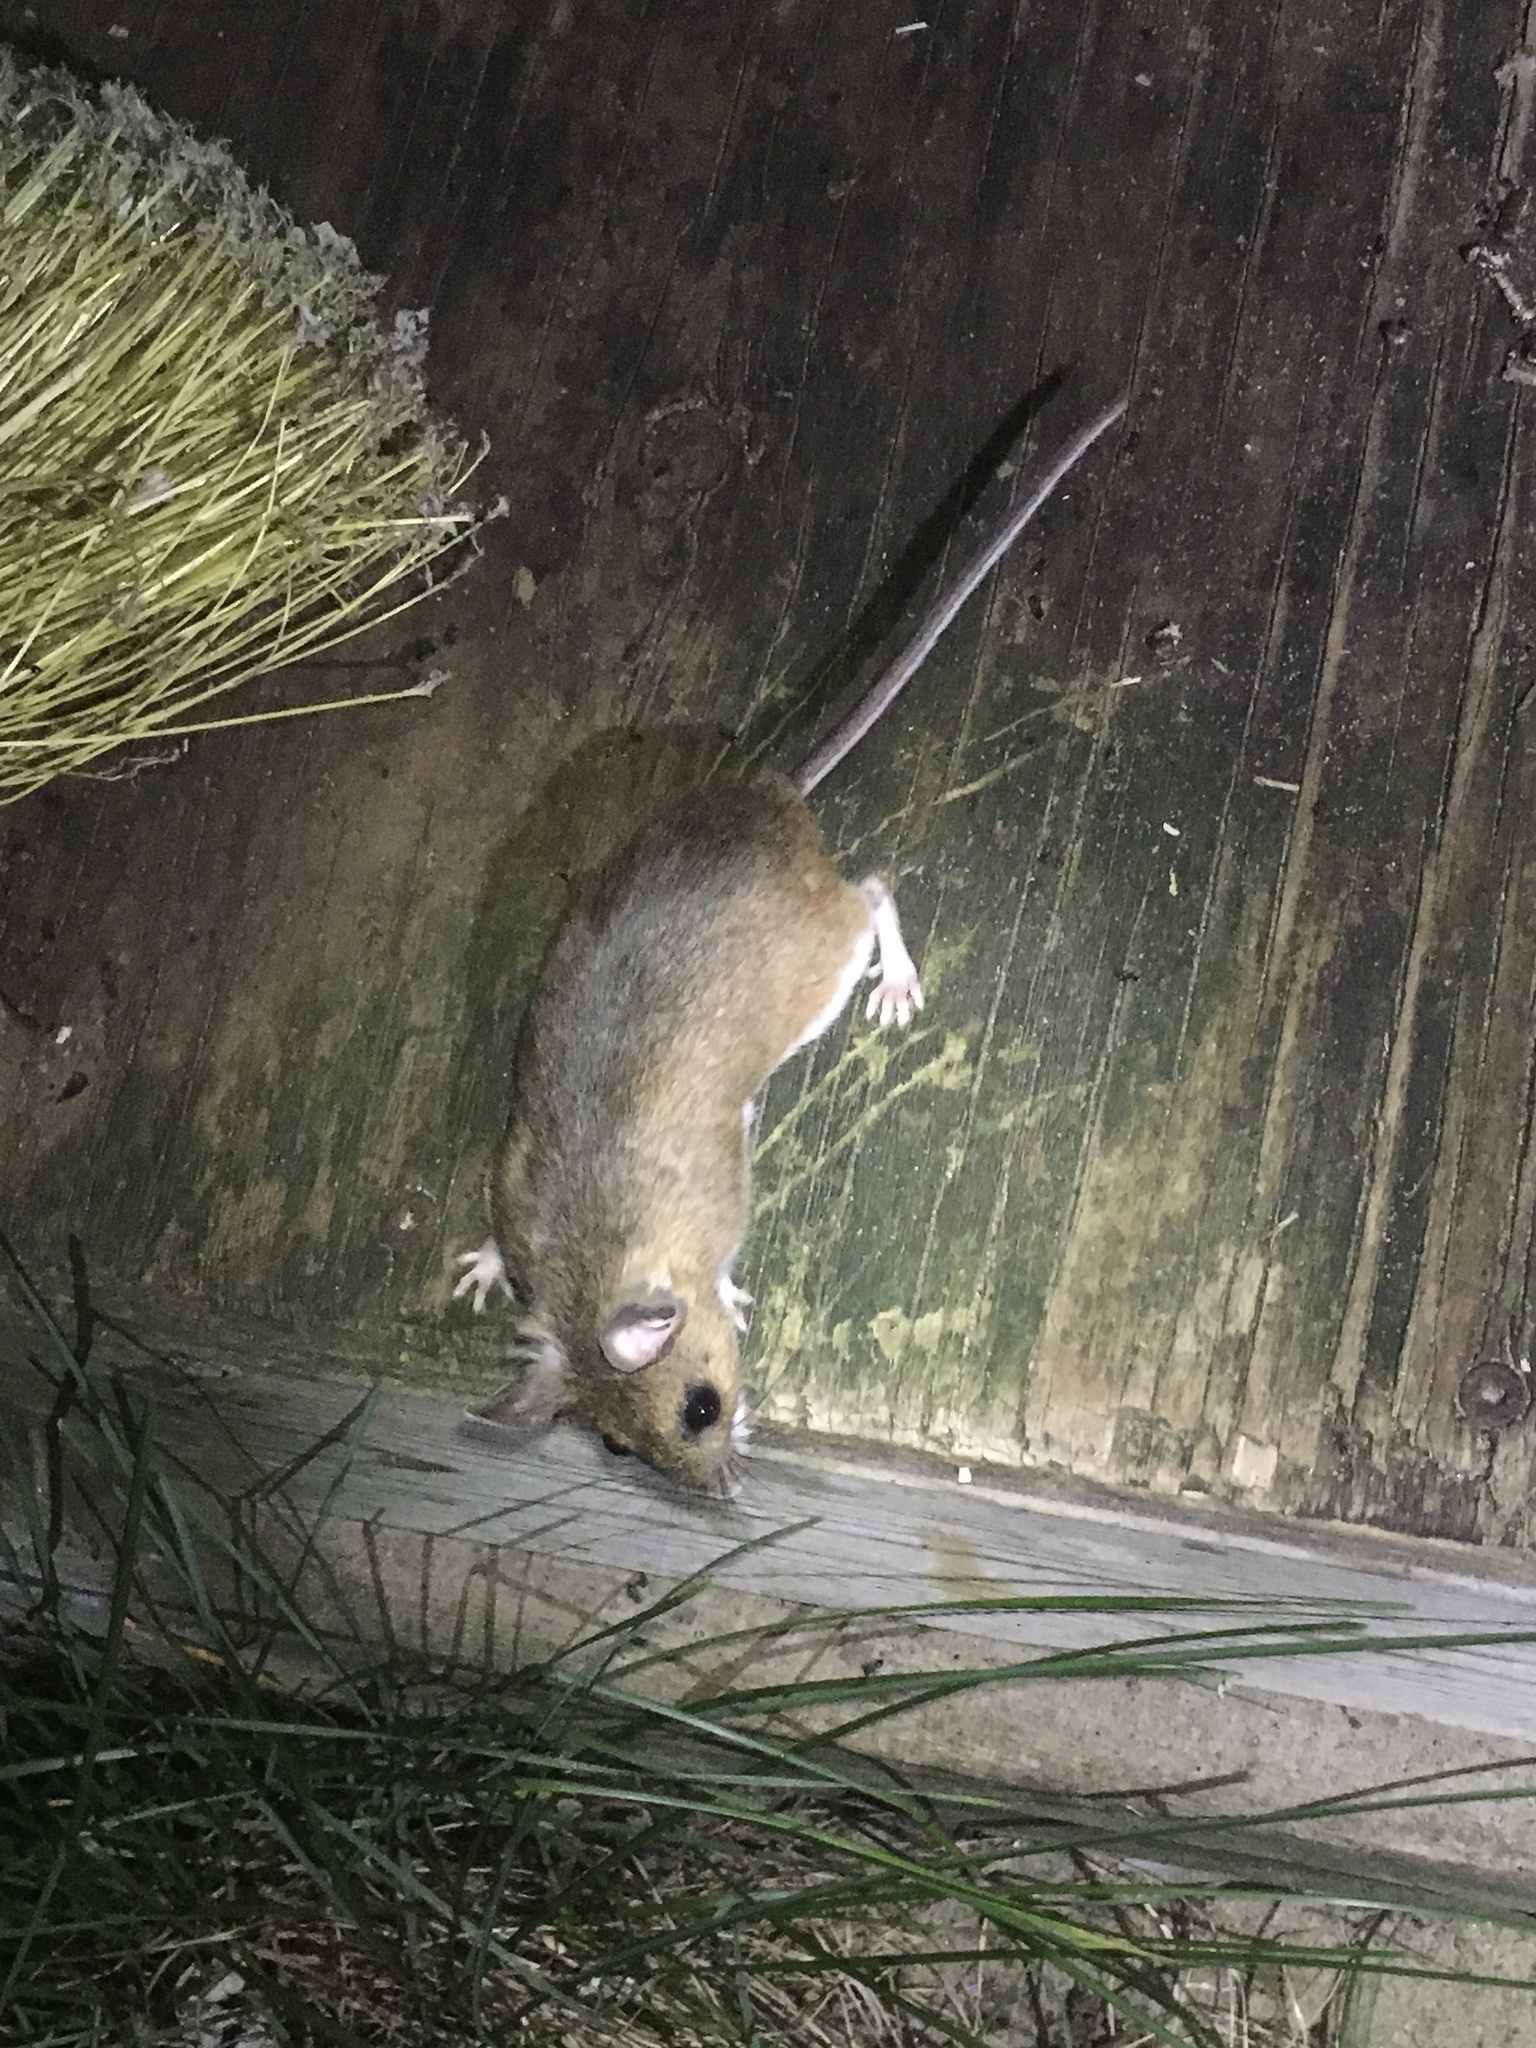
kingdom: Animalia
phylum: Chordata
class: Mammalia
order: Rodentia
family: Cricetidae
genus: Peromyscus
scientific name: Peromyscus
